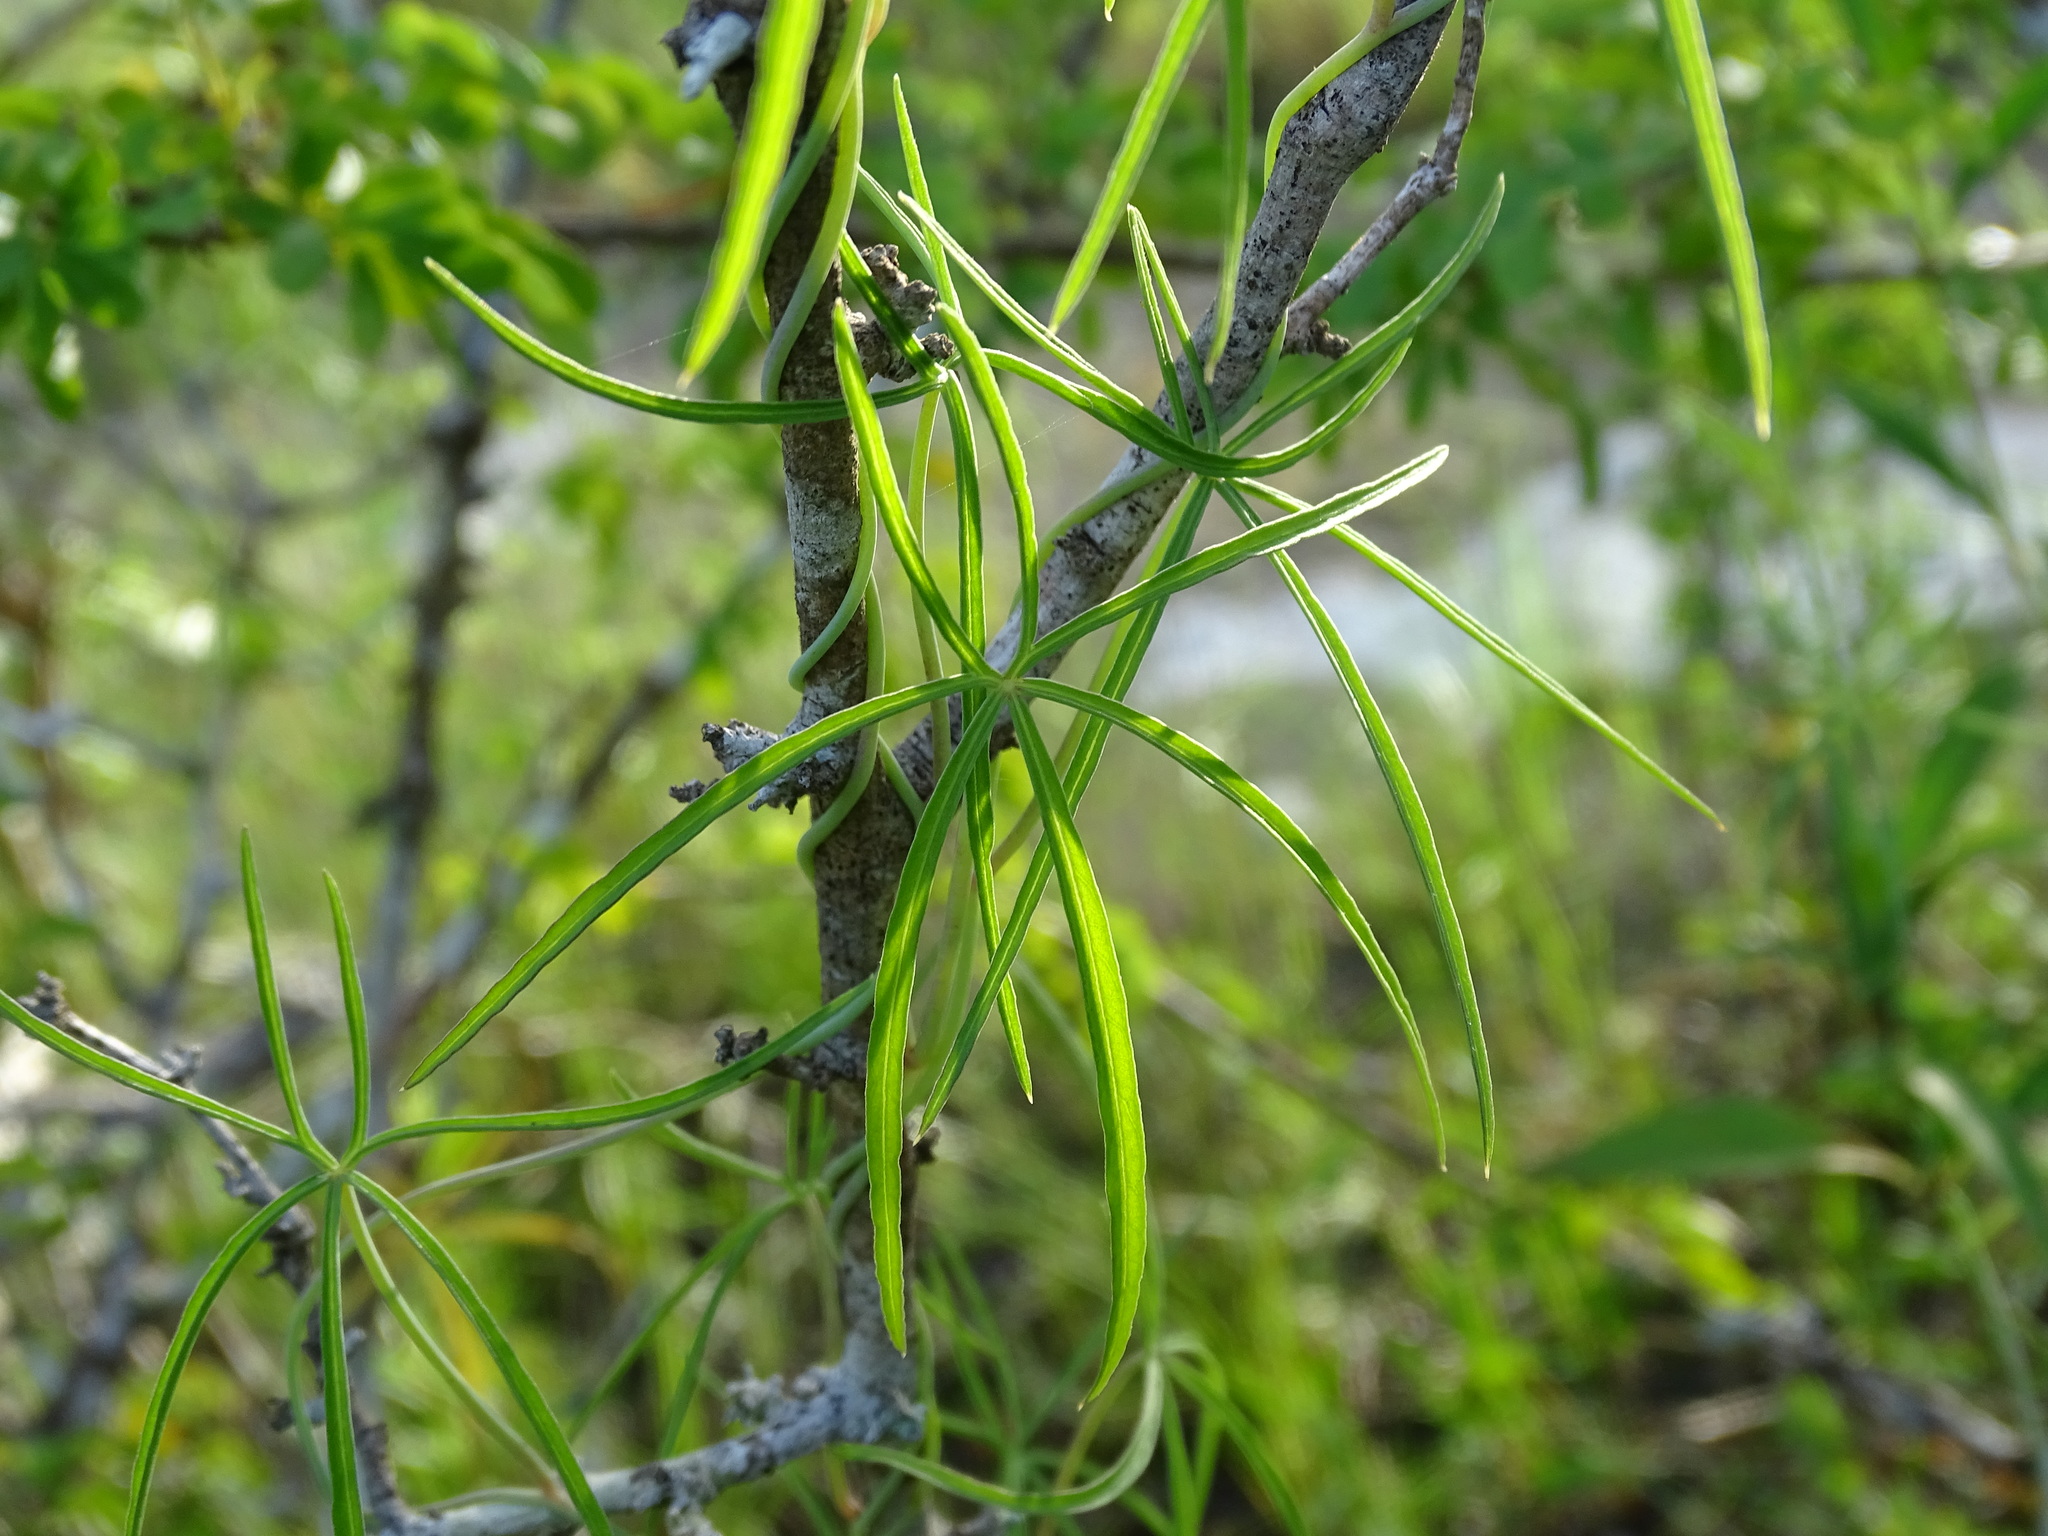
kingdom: Plantae
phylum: Tracheophyta
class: Magnoliopsida
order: Solanales
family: Convolvulaceae
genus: Ipomoea
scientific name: Ipomoea sororia
